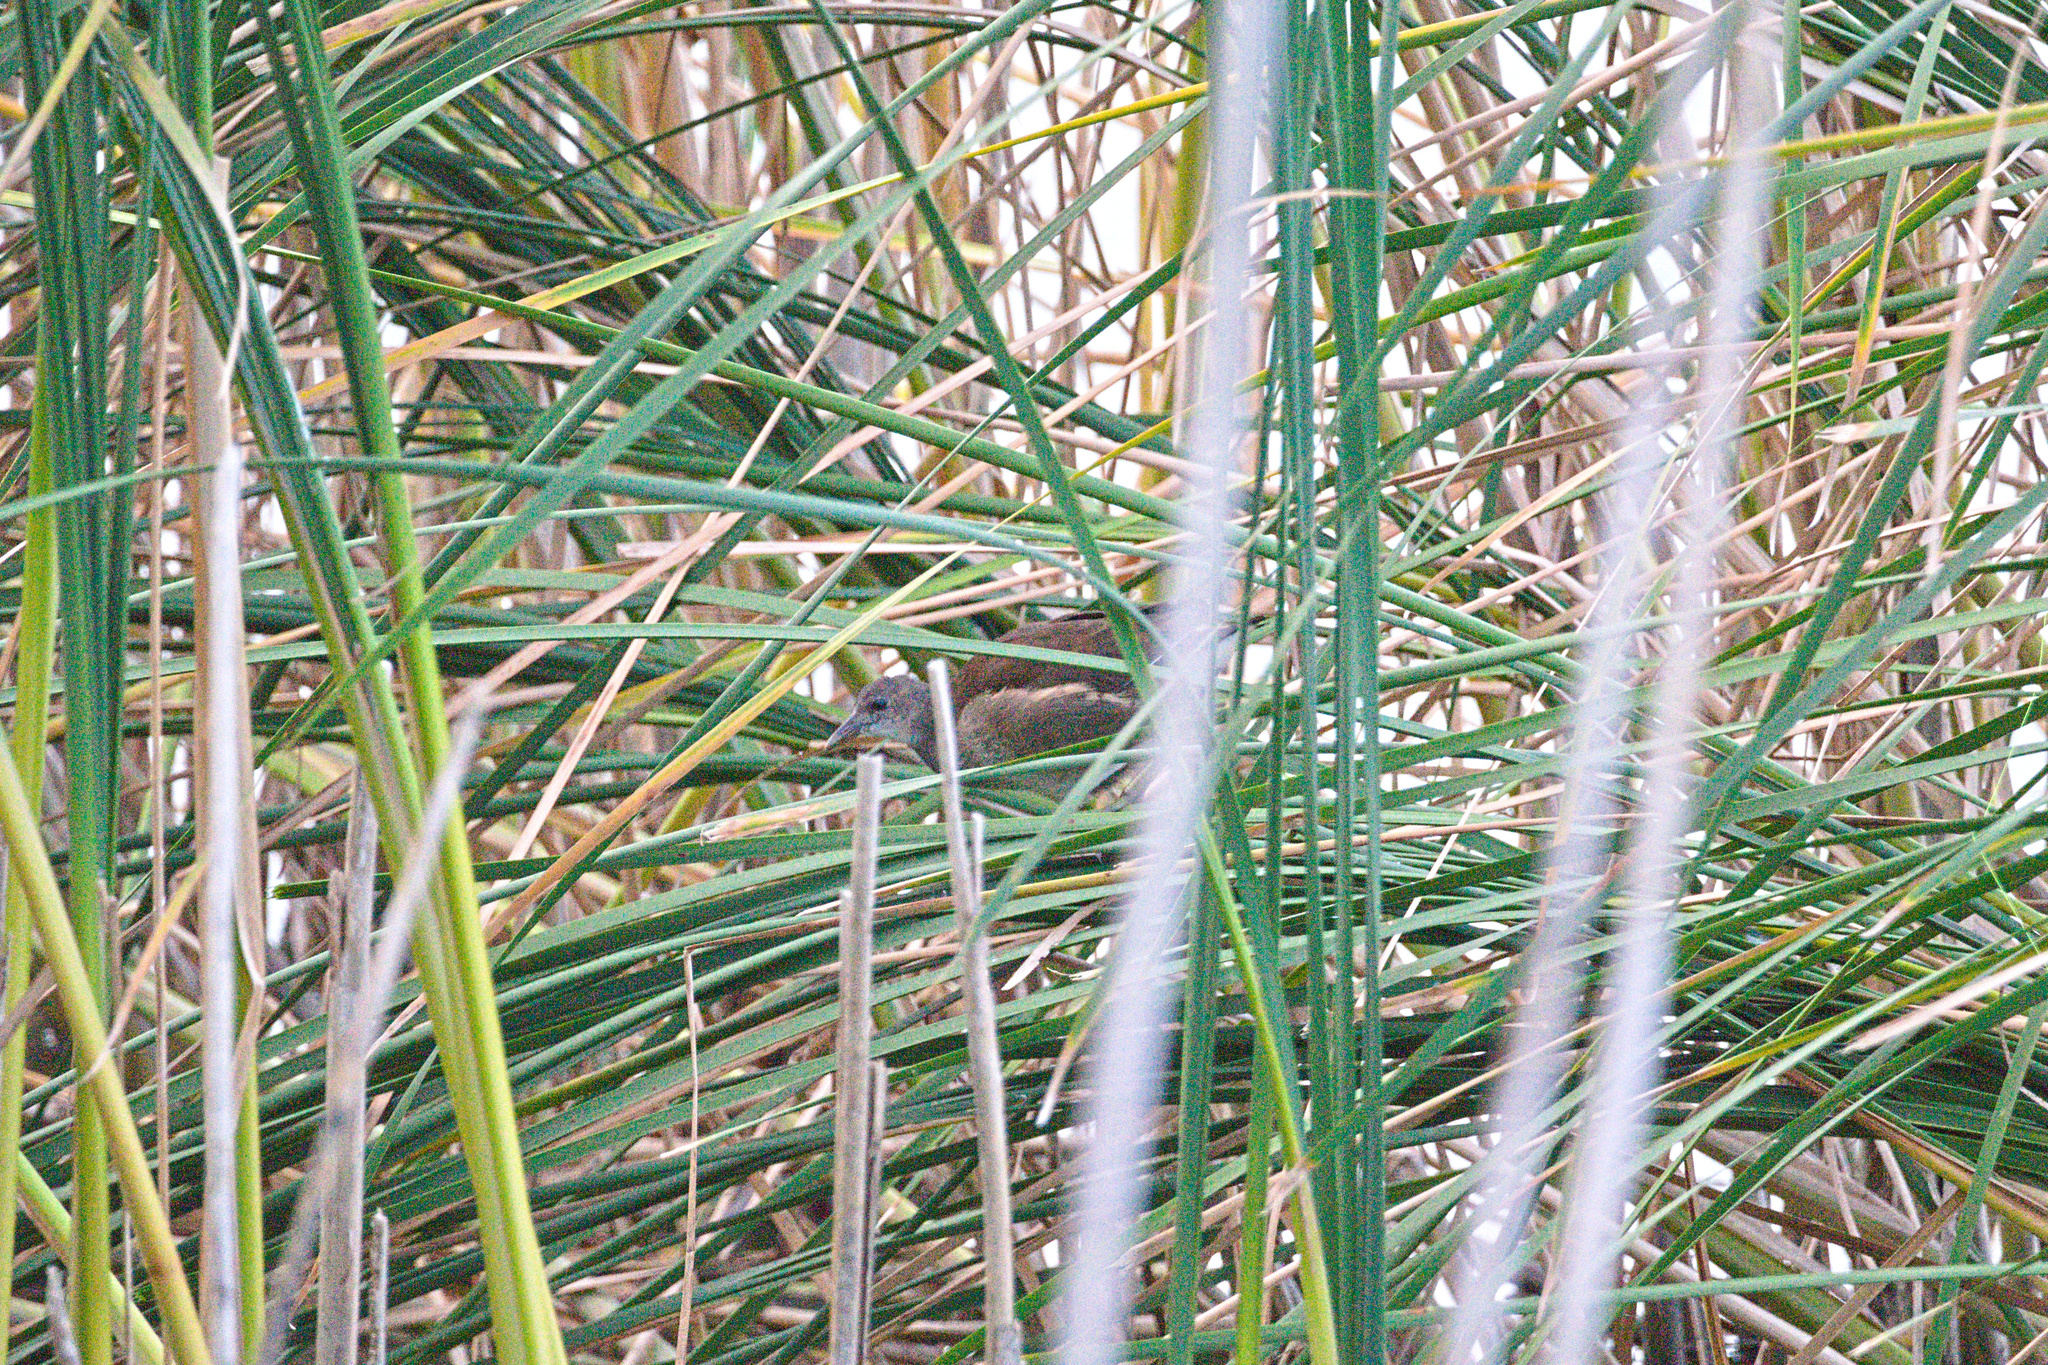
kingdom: Animalia
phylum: Chordata
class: Aves
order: Gruiformes
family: Rallidae
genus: Gallinula
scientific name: Gallinula chloropus
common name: Common moorhen
